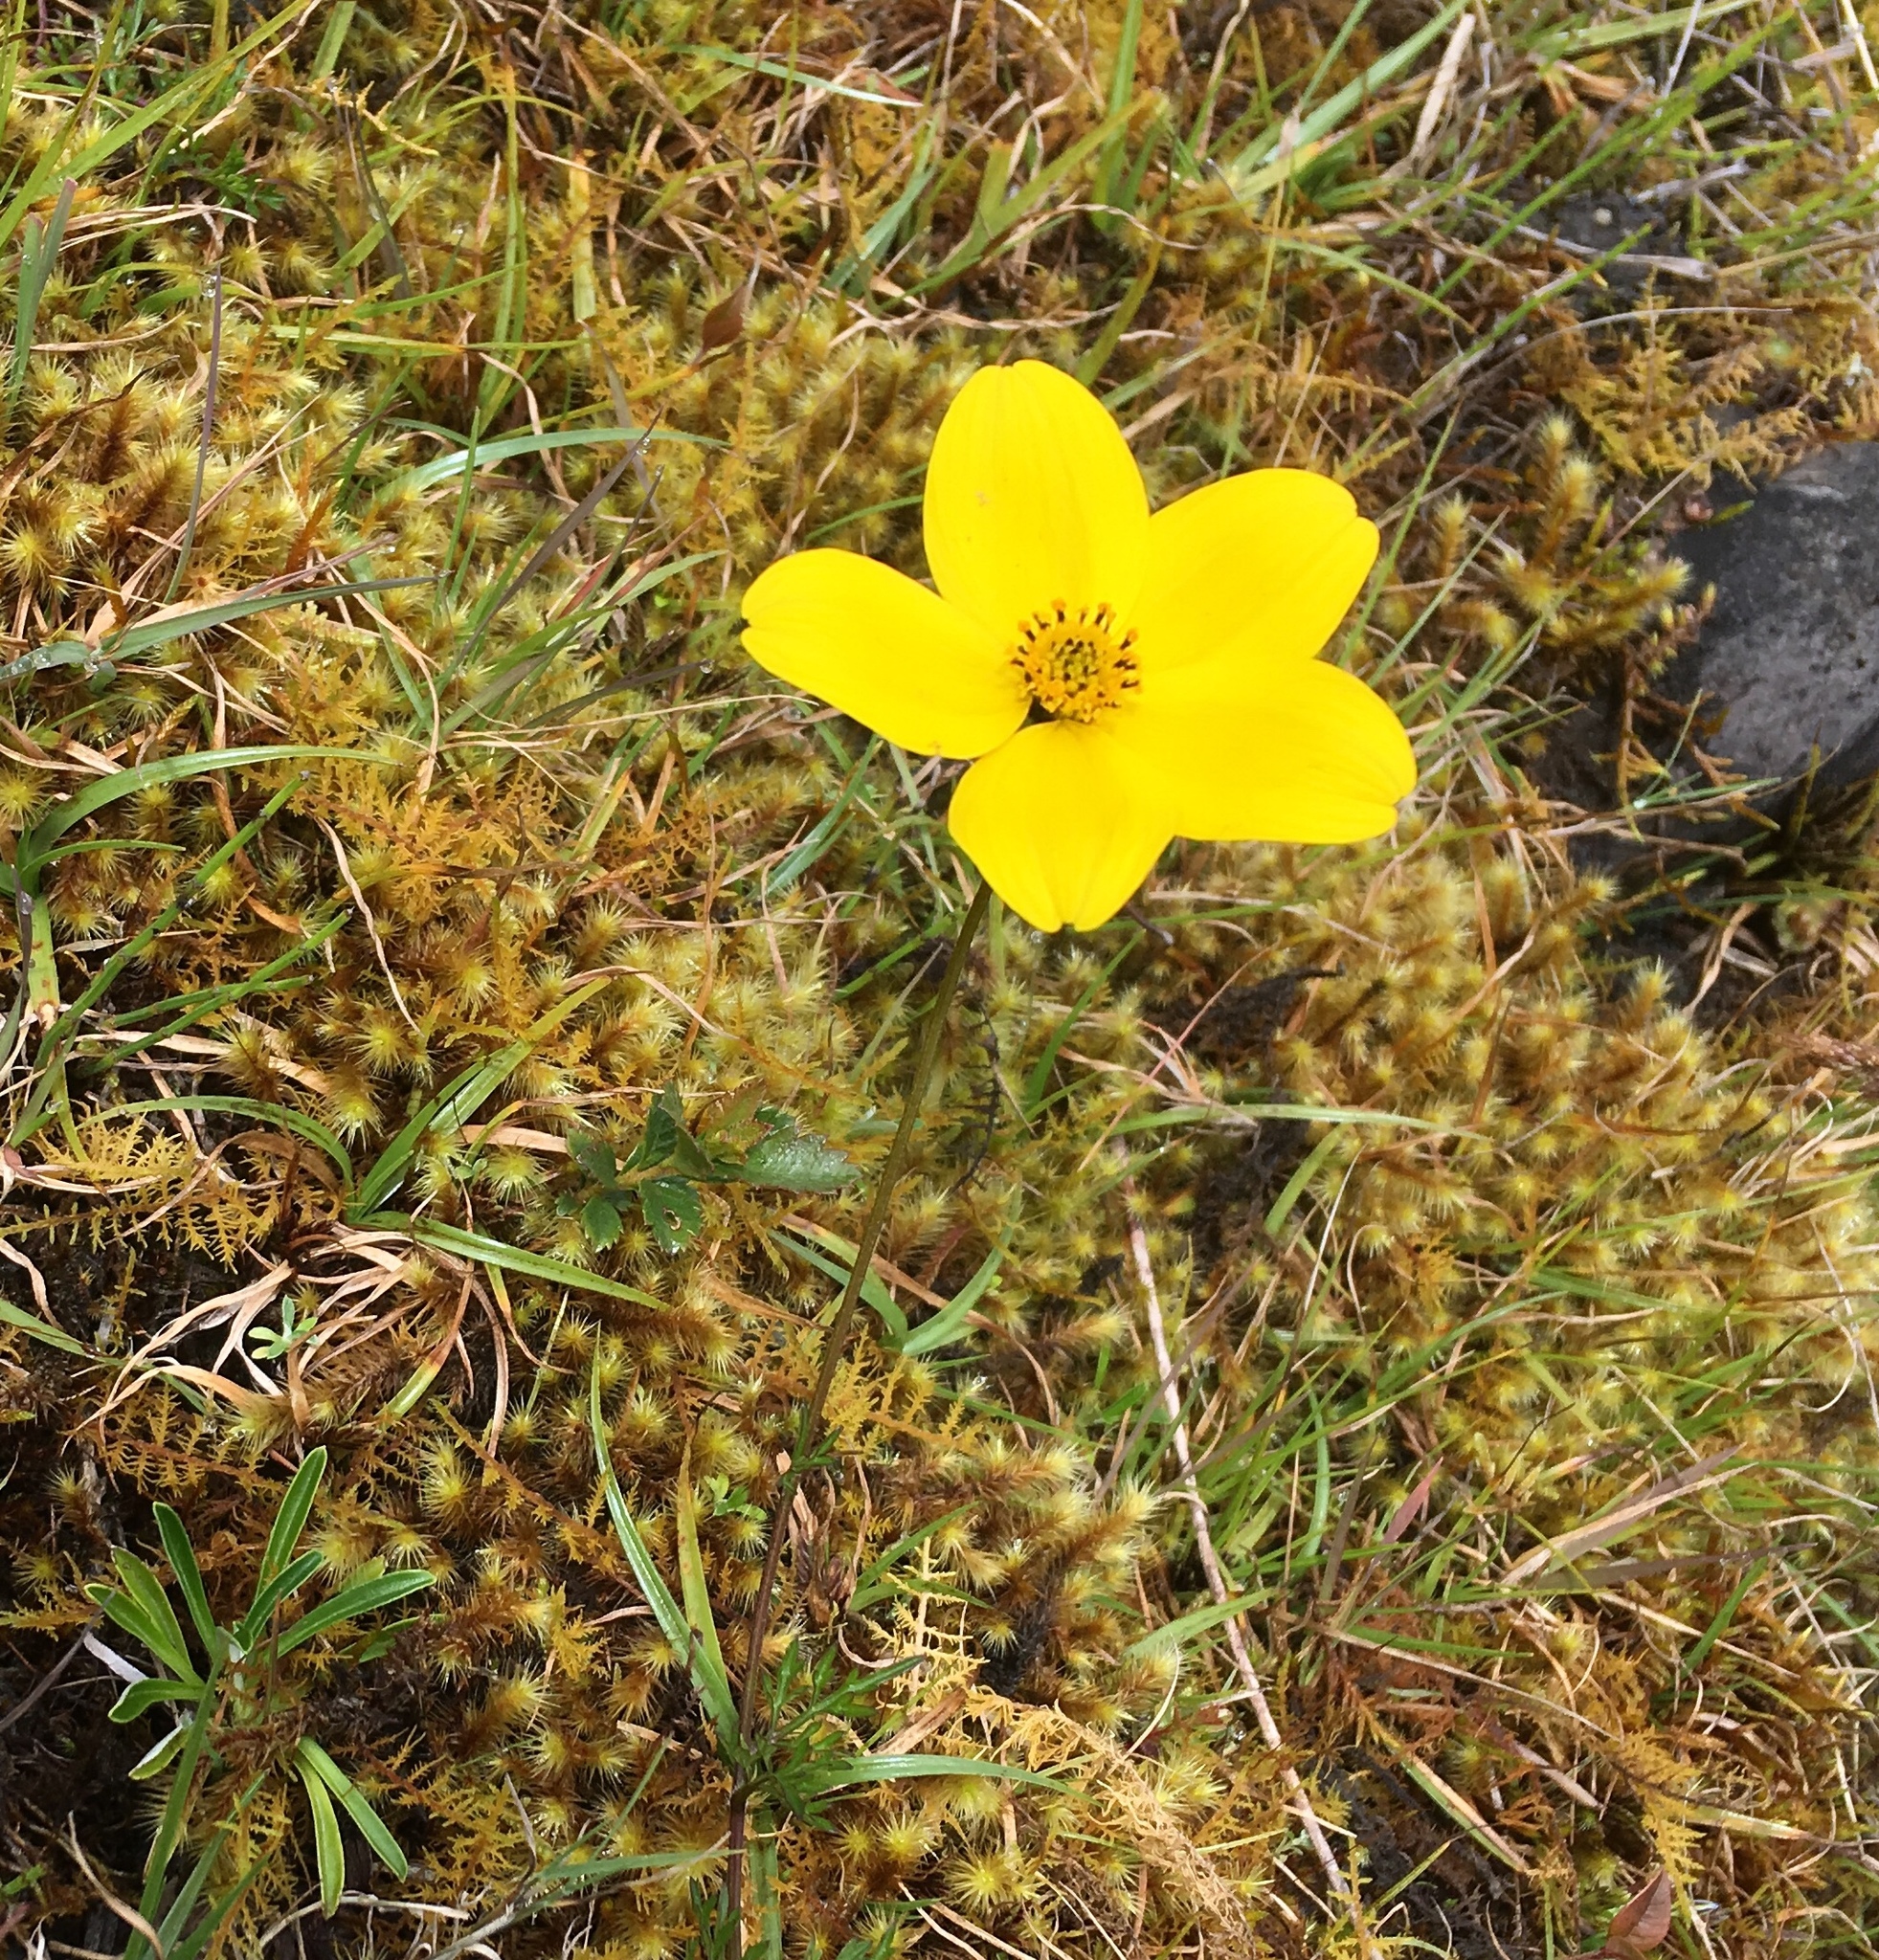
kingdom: Plantae
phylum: Tracheophyta
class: Magnoliopsida
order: Asterales
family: Asteraceae
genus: Bidens
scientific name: Bidens andicola
